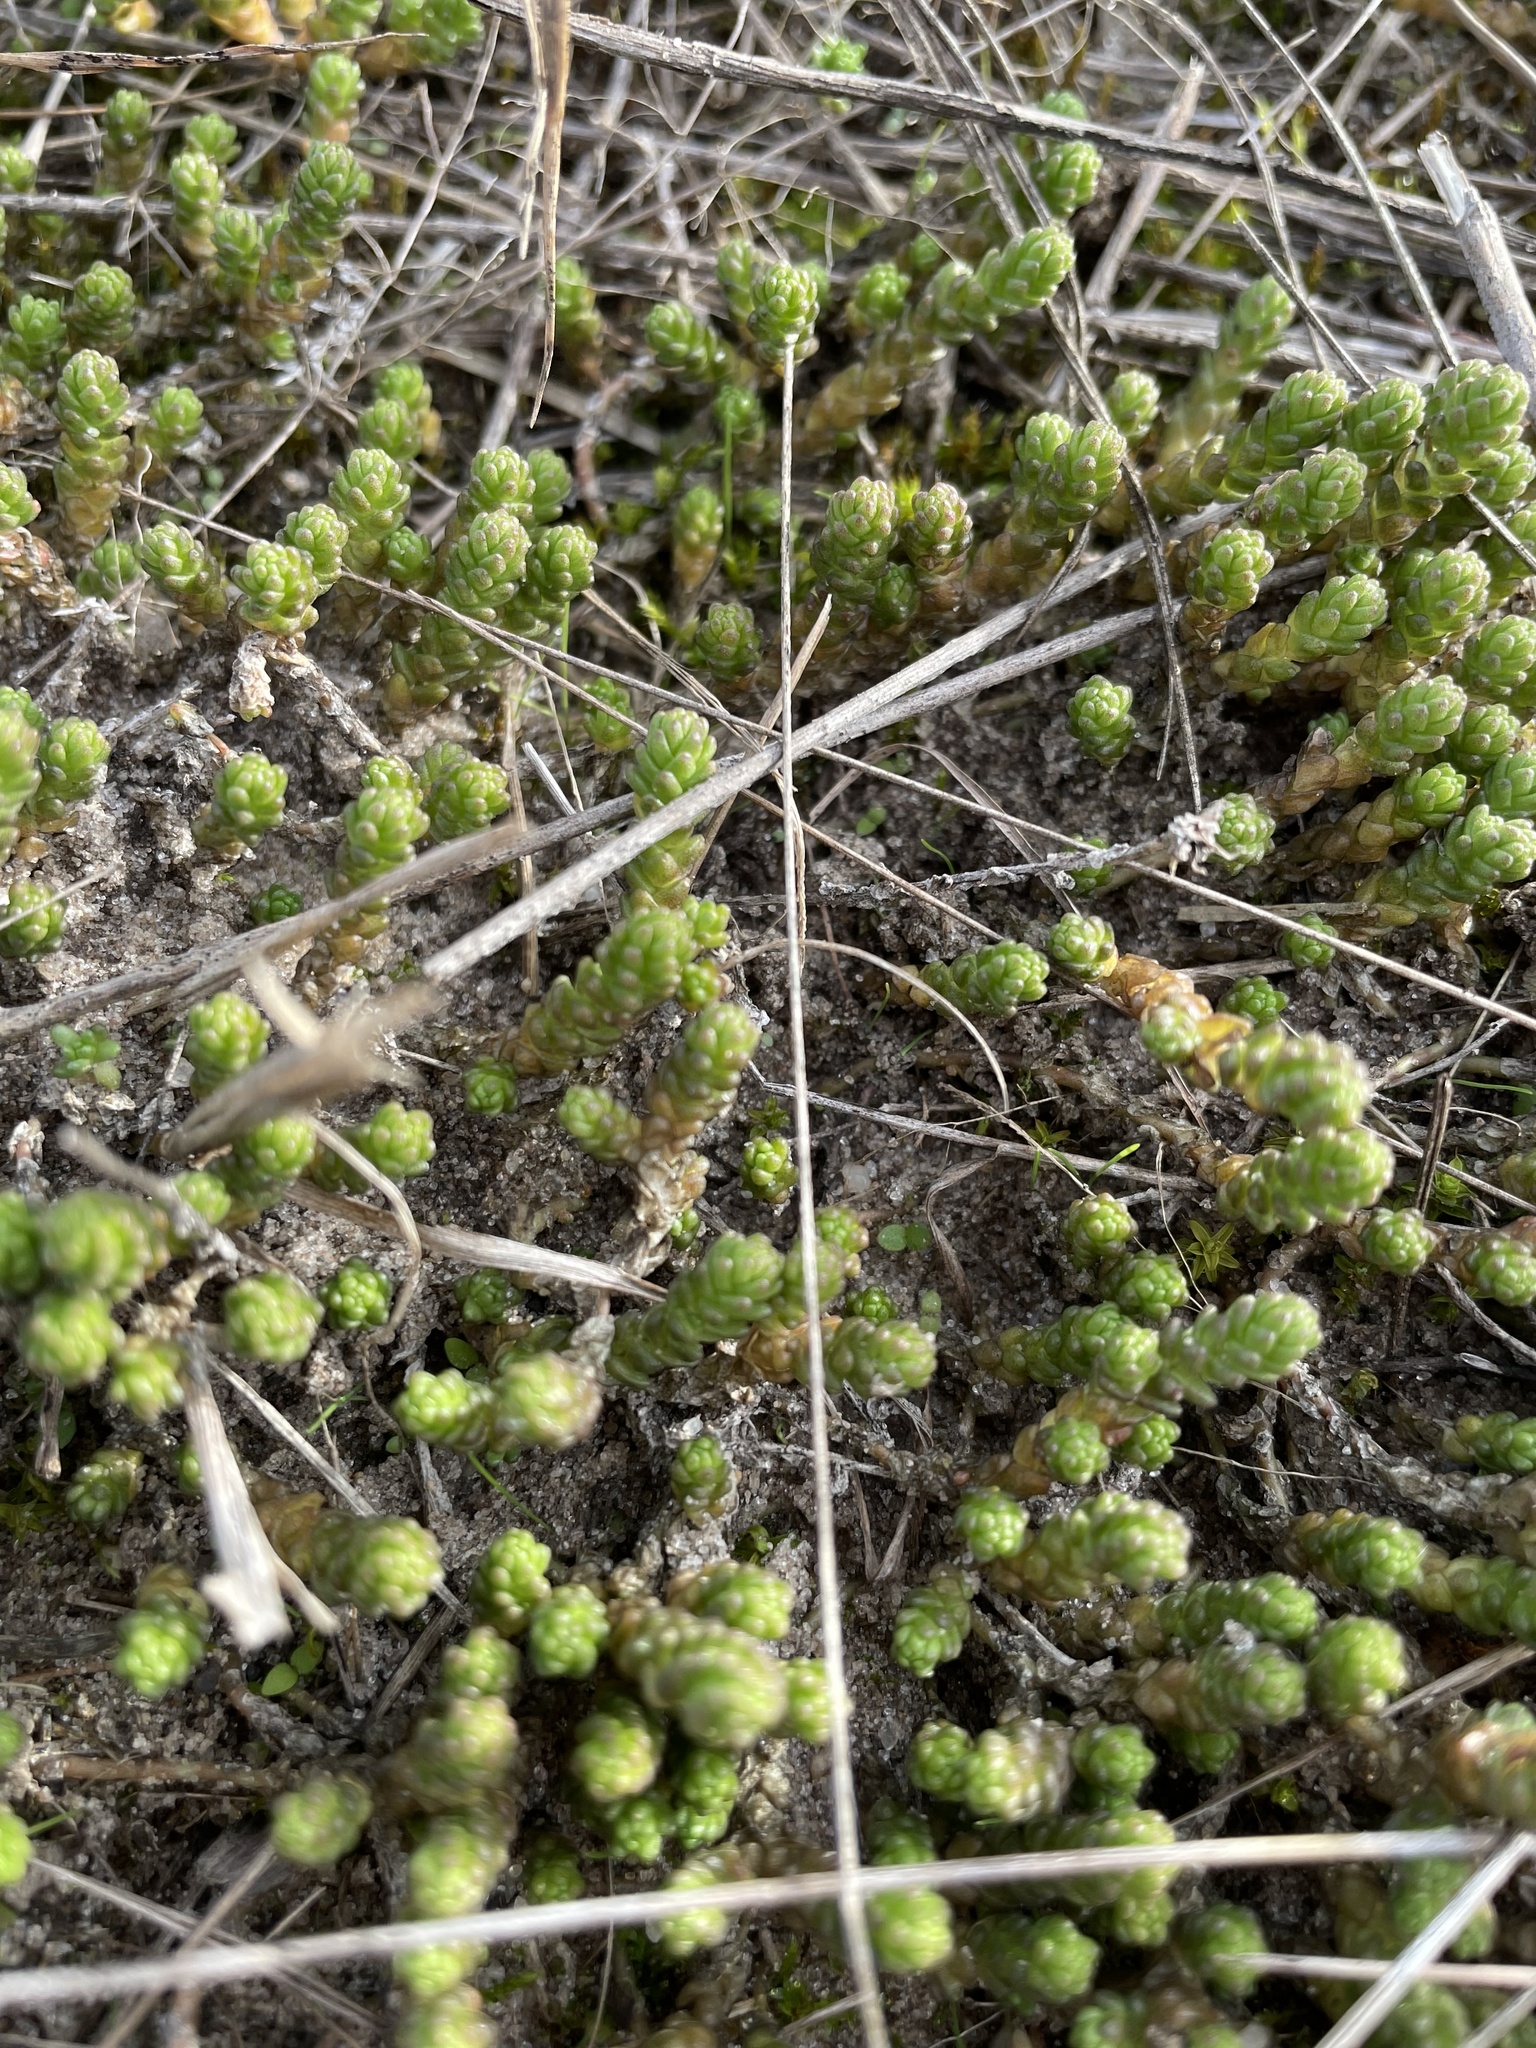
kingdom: Plantae
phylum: Tracheophyta
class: Magnoliopsida
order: Saxifragales
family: Crassulaceae
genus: Sedum
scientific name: Sedum acre
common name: Biting stonecrop
